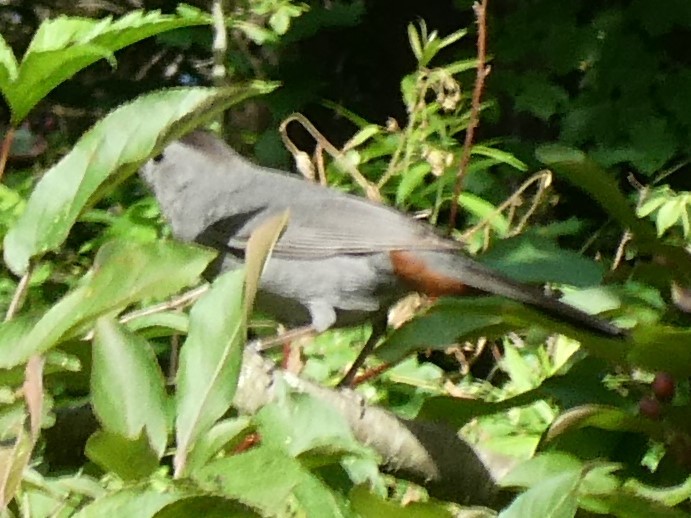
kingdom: Animalia
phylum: Chordata
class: Aves
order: Passeriformes
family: Mimidae
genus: Dumetella
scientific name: Dumetella carolinensis
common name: Gray catbird
